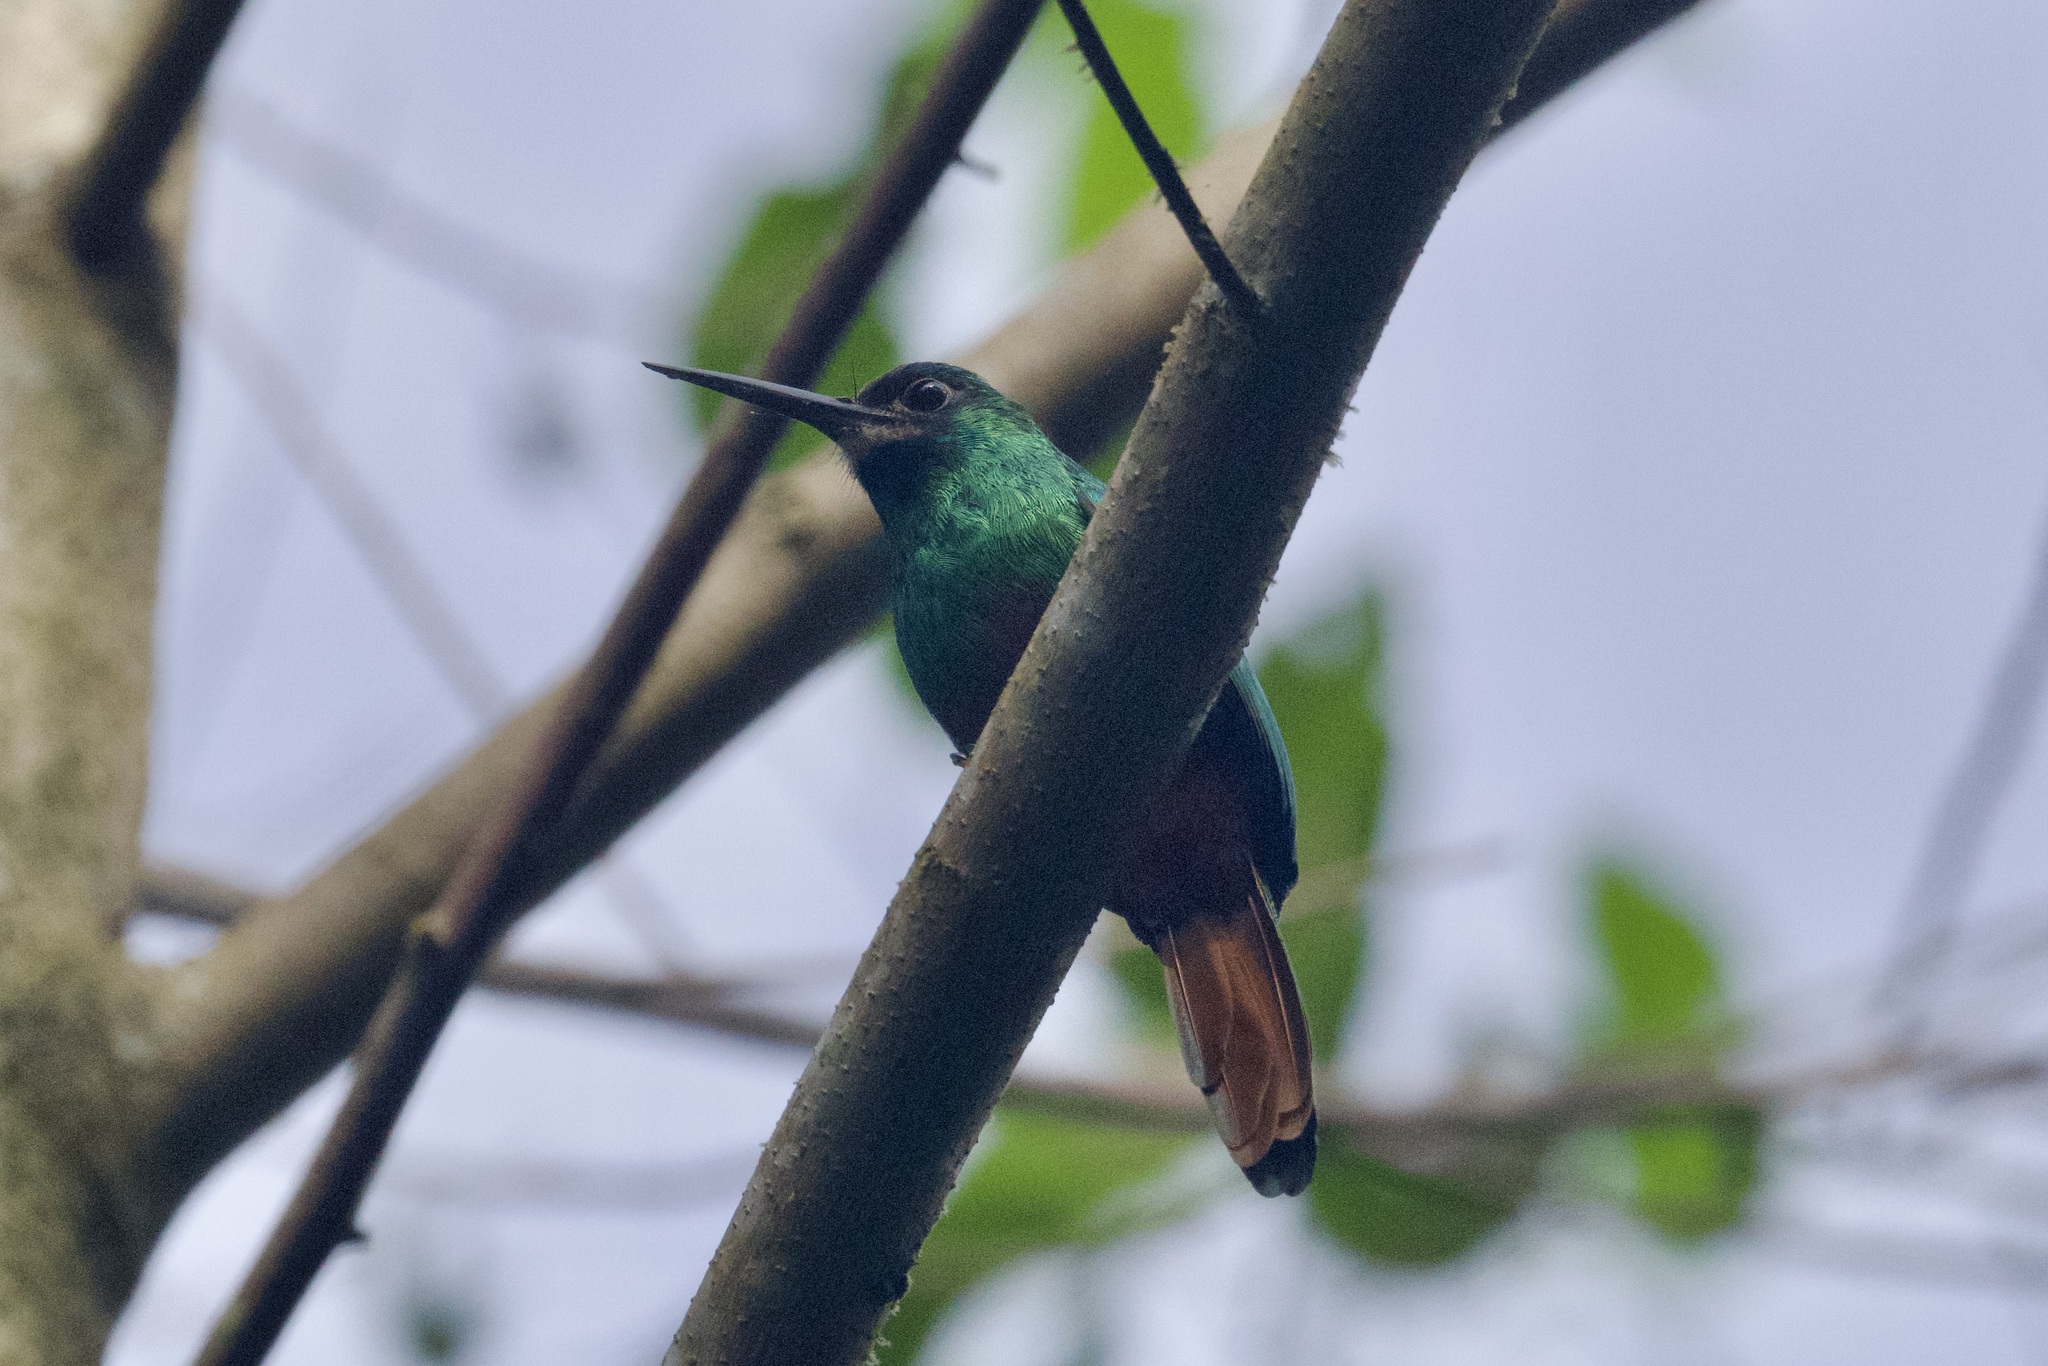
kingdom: Animalia
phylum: Chordata
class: Aves
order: Piciformes
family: Galbulidae
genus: Galbula
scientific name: Galbula tombacea
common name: White-chinned jacamar
